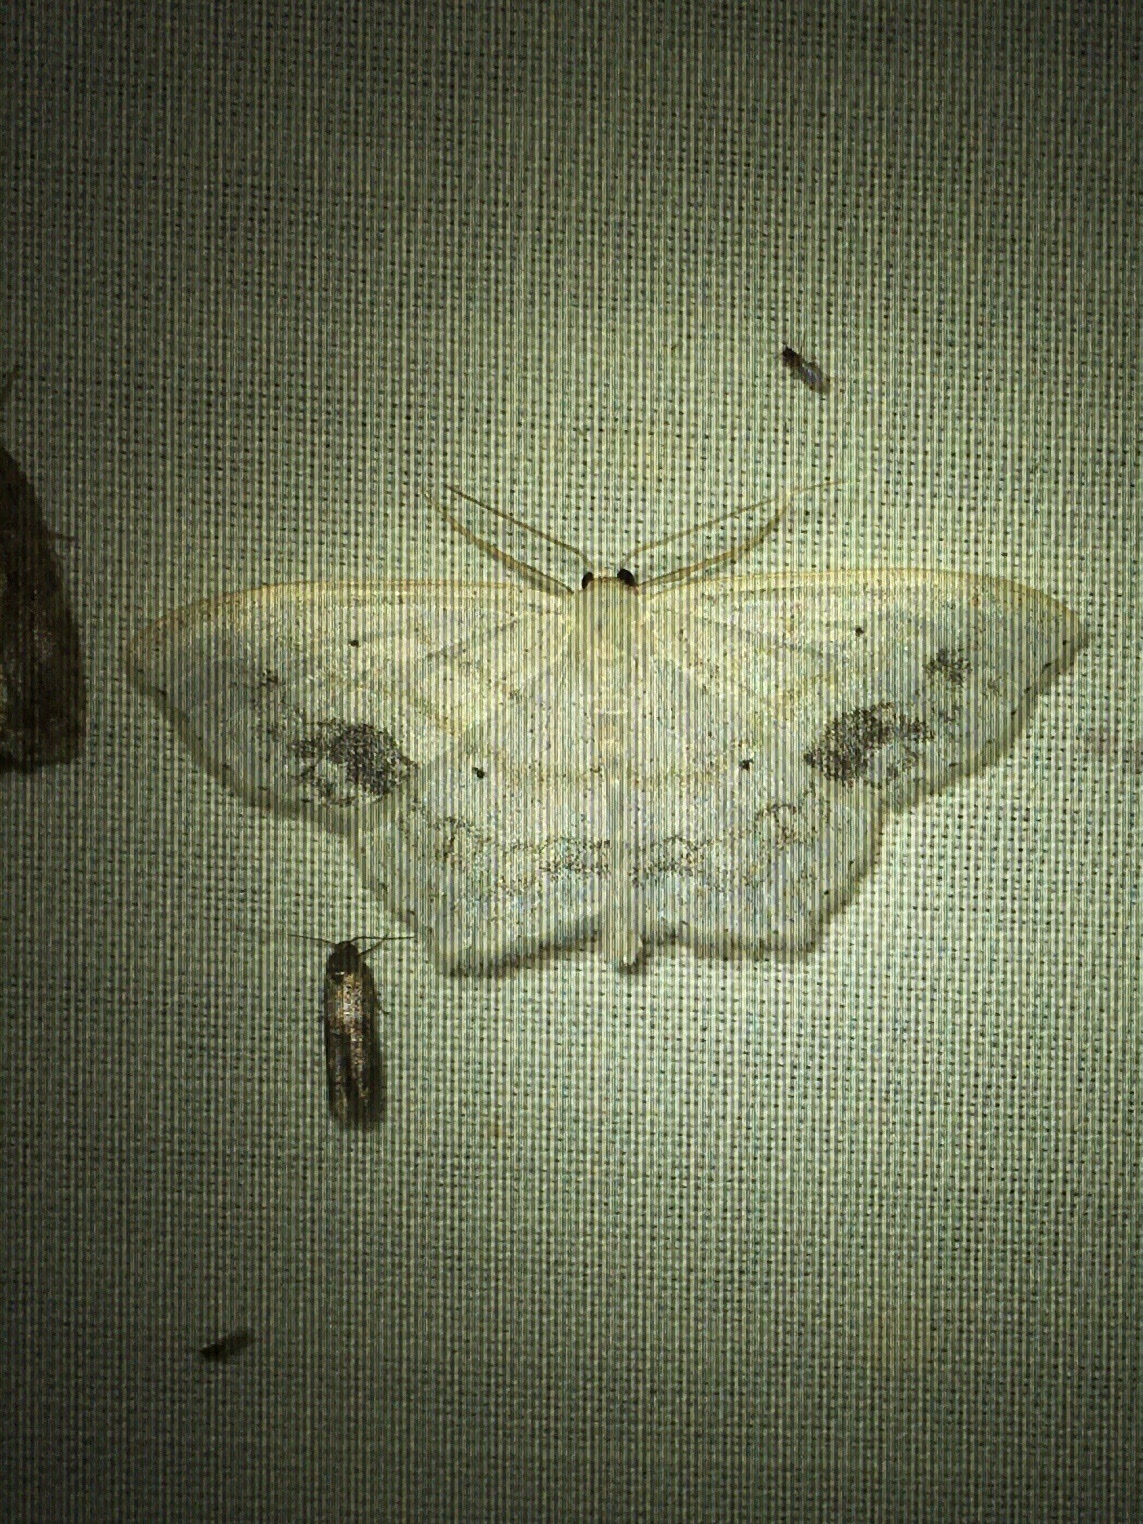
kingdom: Animalia
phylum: Arthropoda
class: Insecta
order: Lepidoptera
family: Geometridae
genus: Scopula
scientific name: Scopula limboundata
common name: Large lace border
